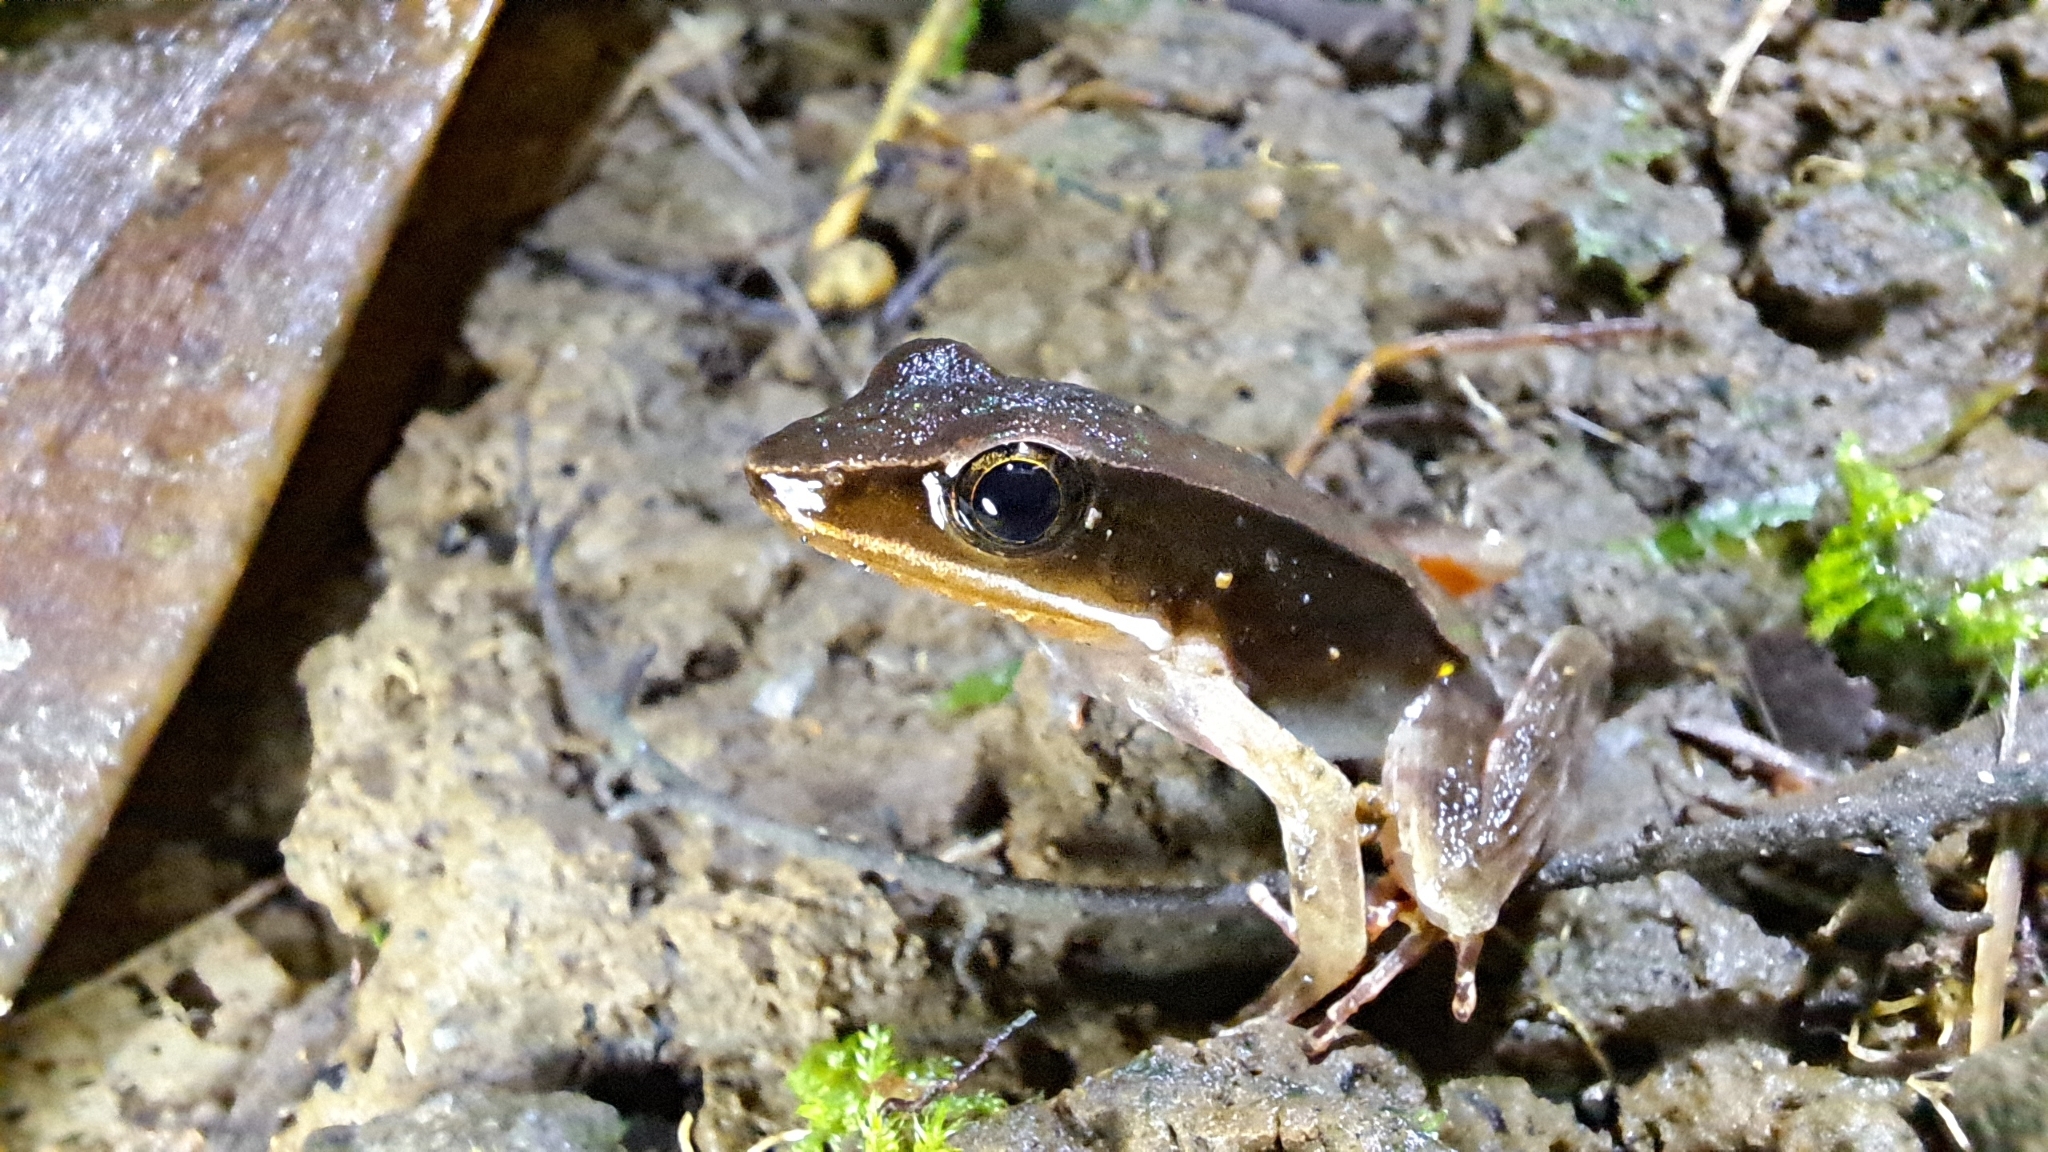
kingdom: Animalia
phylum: Chordata
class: Amphibia
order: Anura
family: Ranidae
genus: Lithobates
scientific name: Lithobates warszewitschii
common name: Warszewitsch's frog
